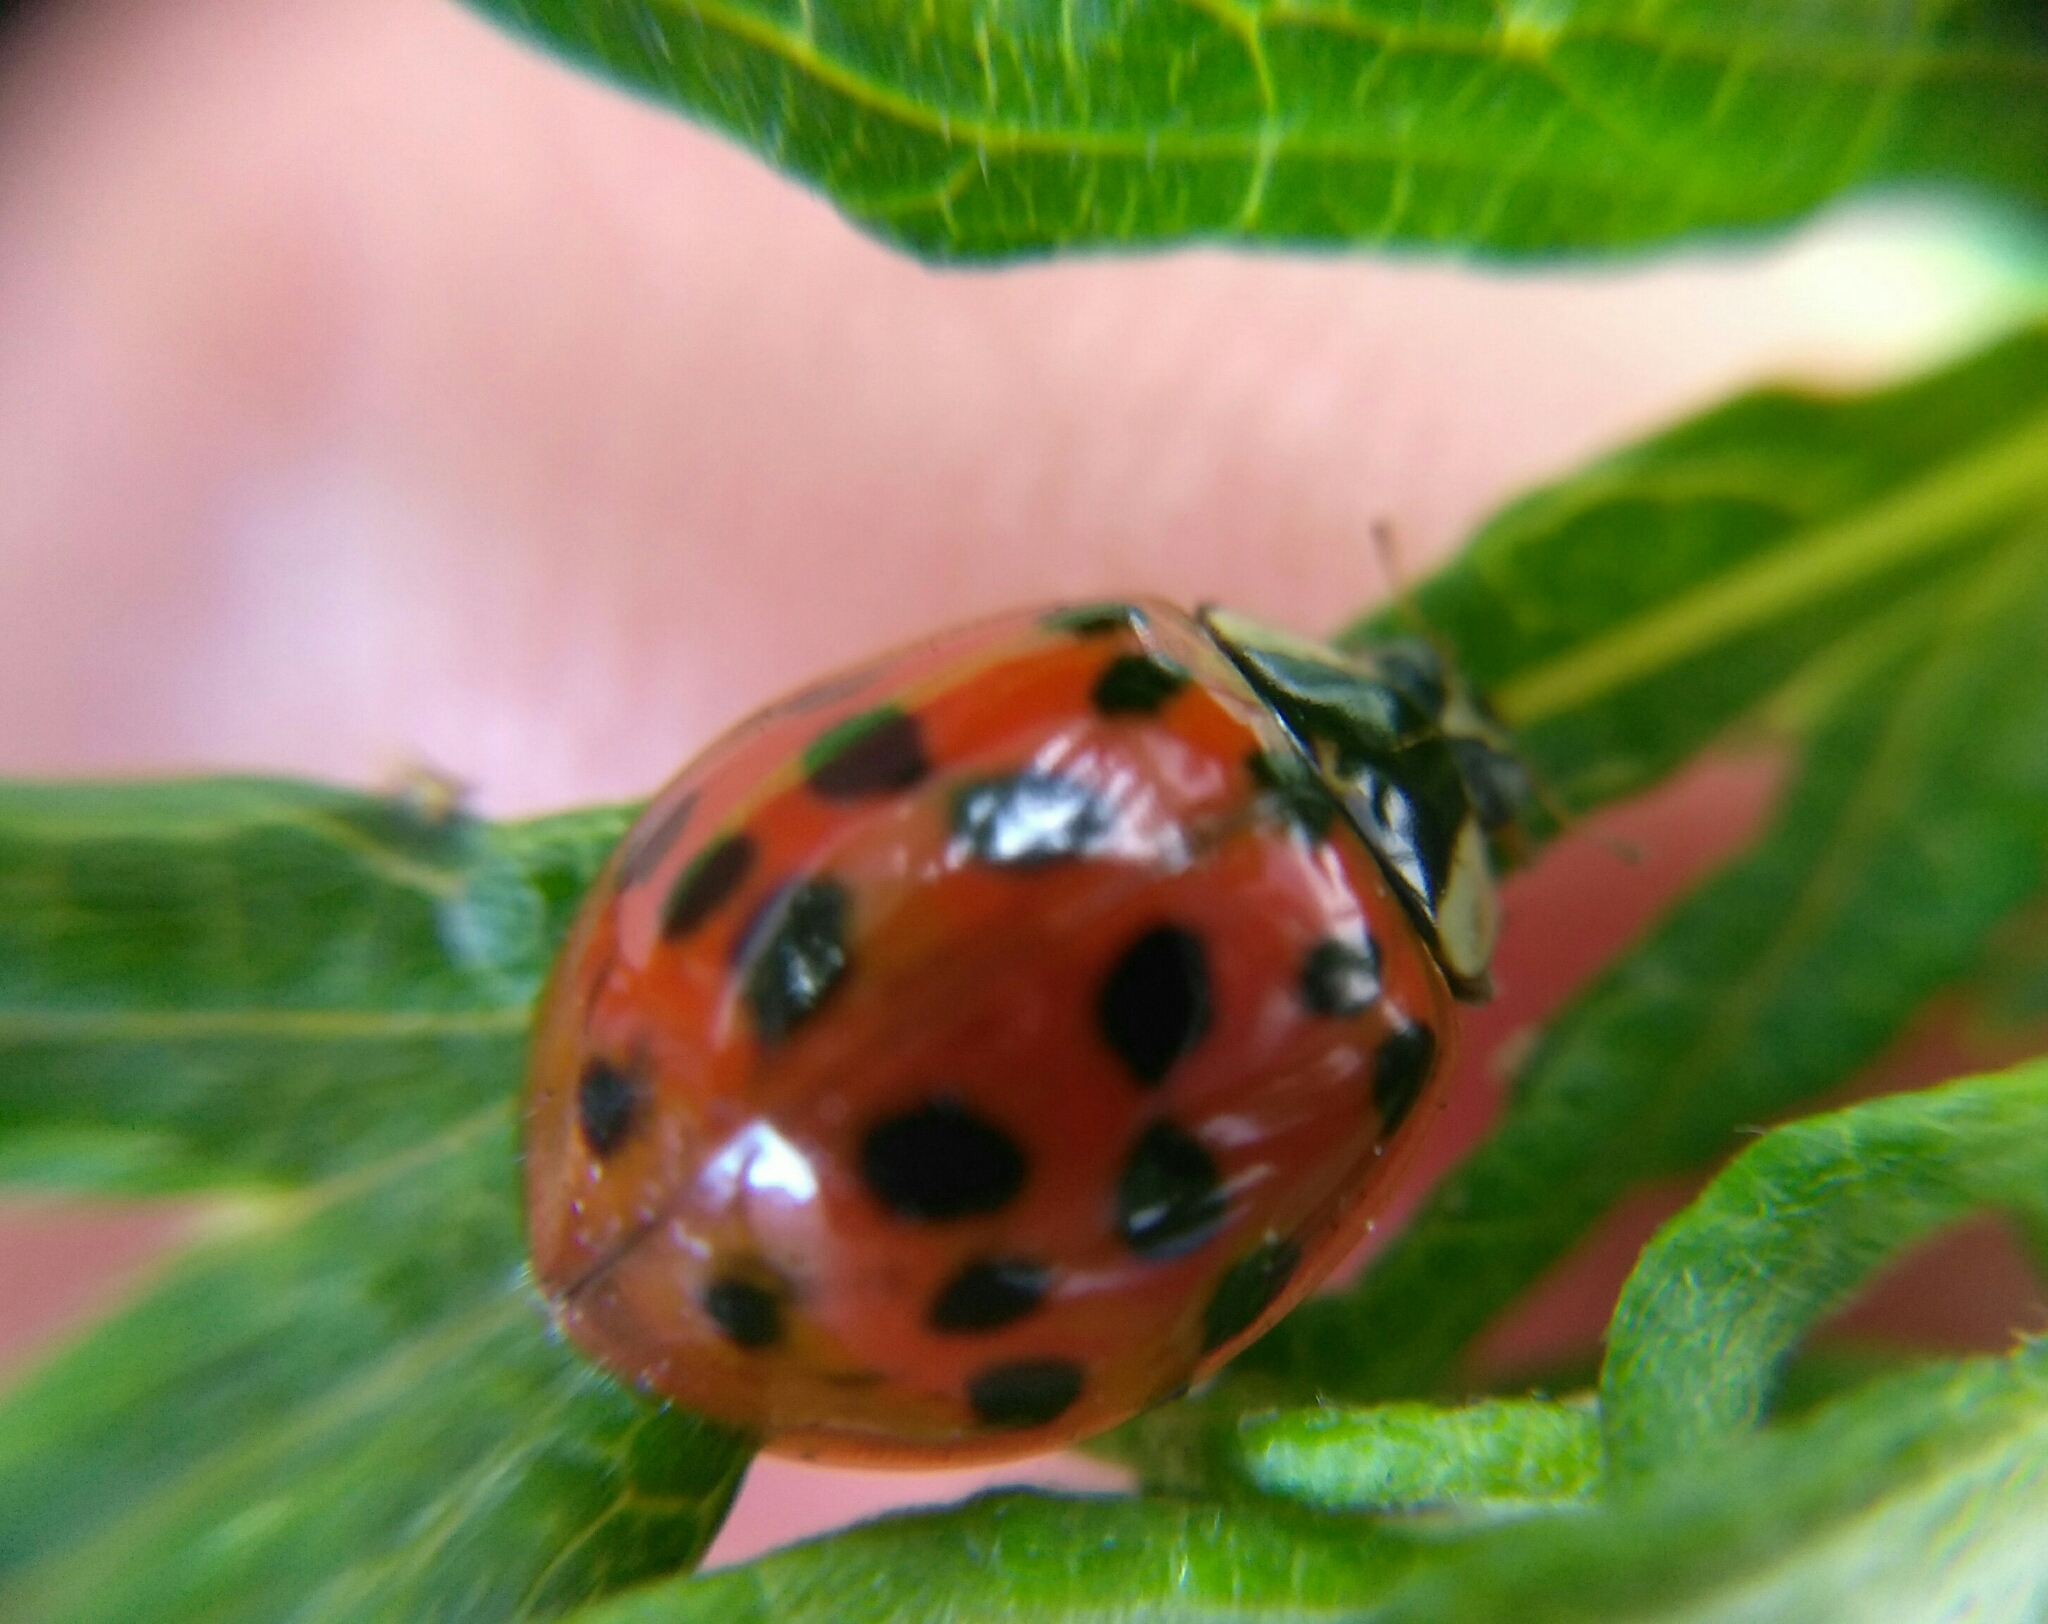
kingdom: Animalia
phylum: Arthropoda
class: Insecta
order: Coleoptera
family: Coccinellidae
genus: Harmonia
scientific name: Harmonia axyridis
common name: Harlequin ladybird
